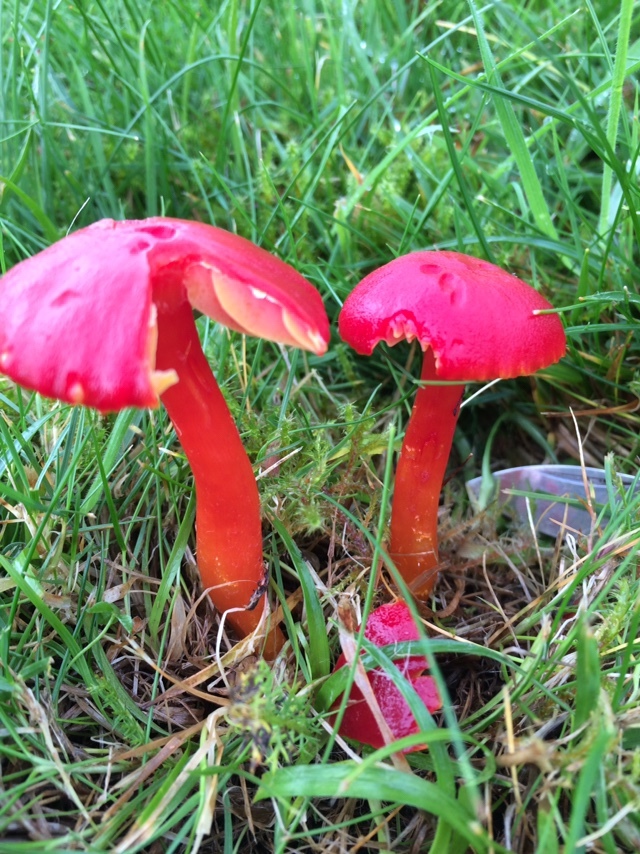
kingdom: Fungi
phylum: Basidiomycota
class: Agaricomycetes
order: Agaricales
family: Hygrophoraceae
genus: Hygrocybe
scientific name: Hygrocybe coccinea
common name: Scarlet hood
